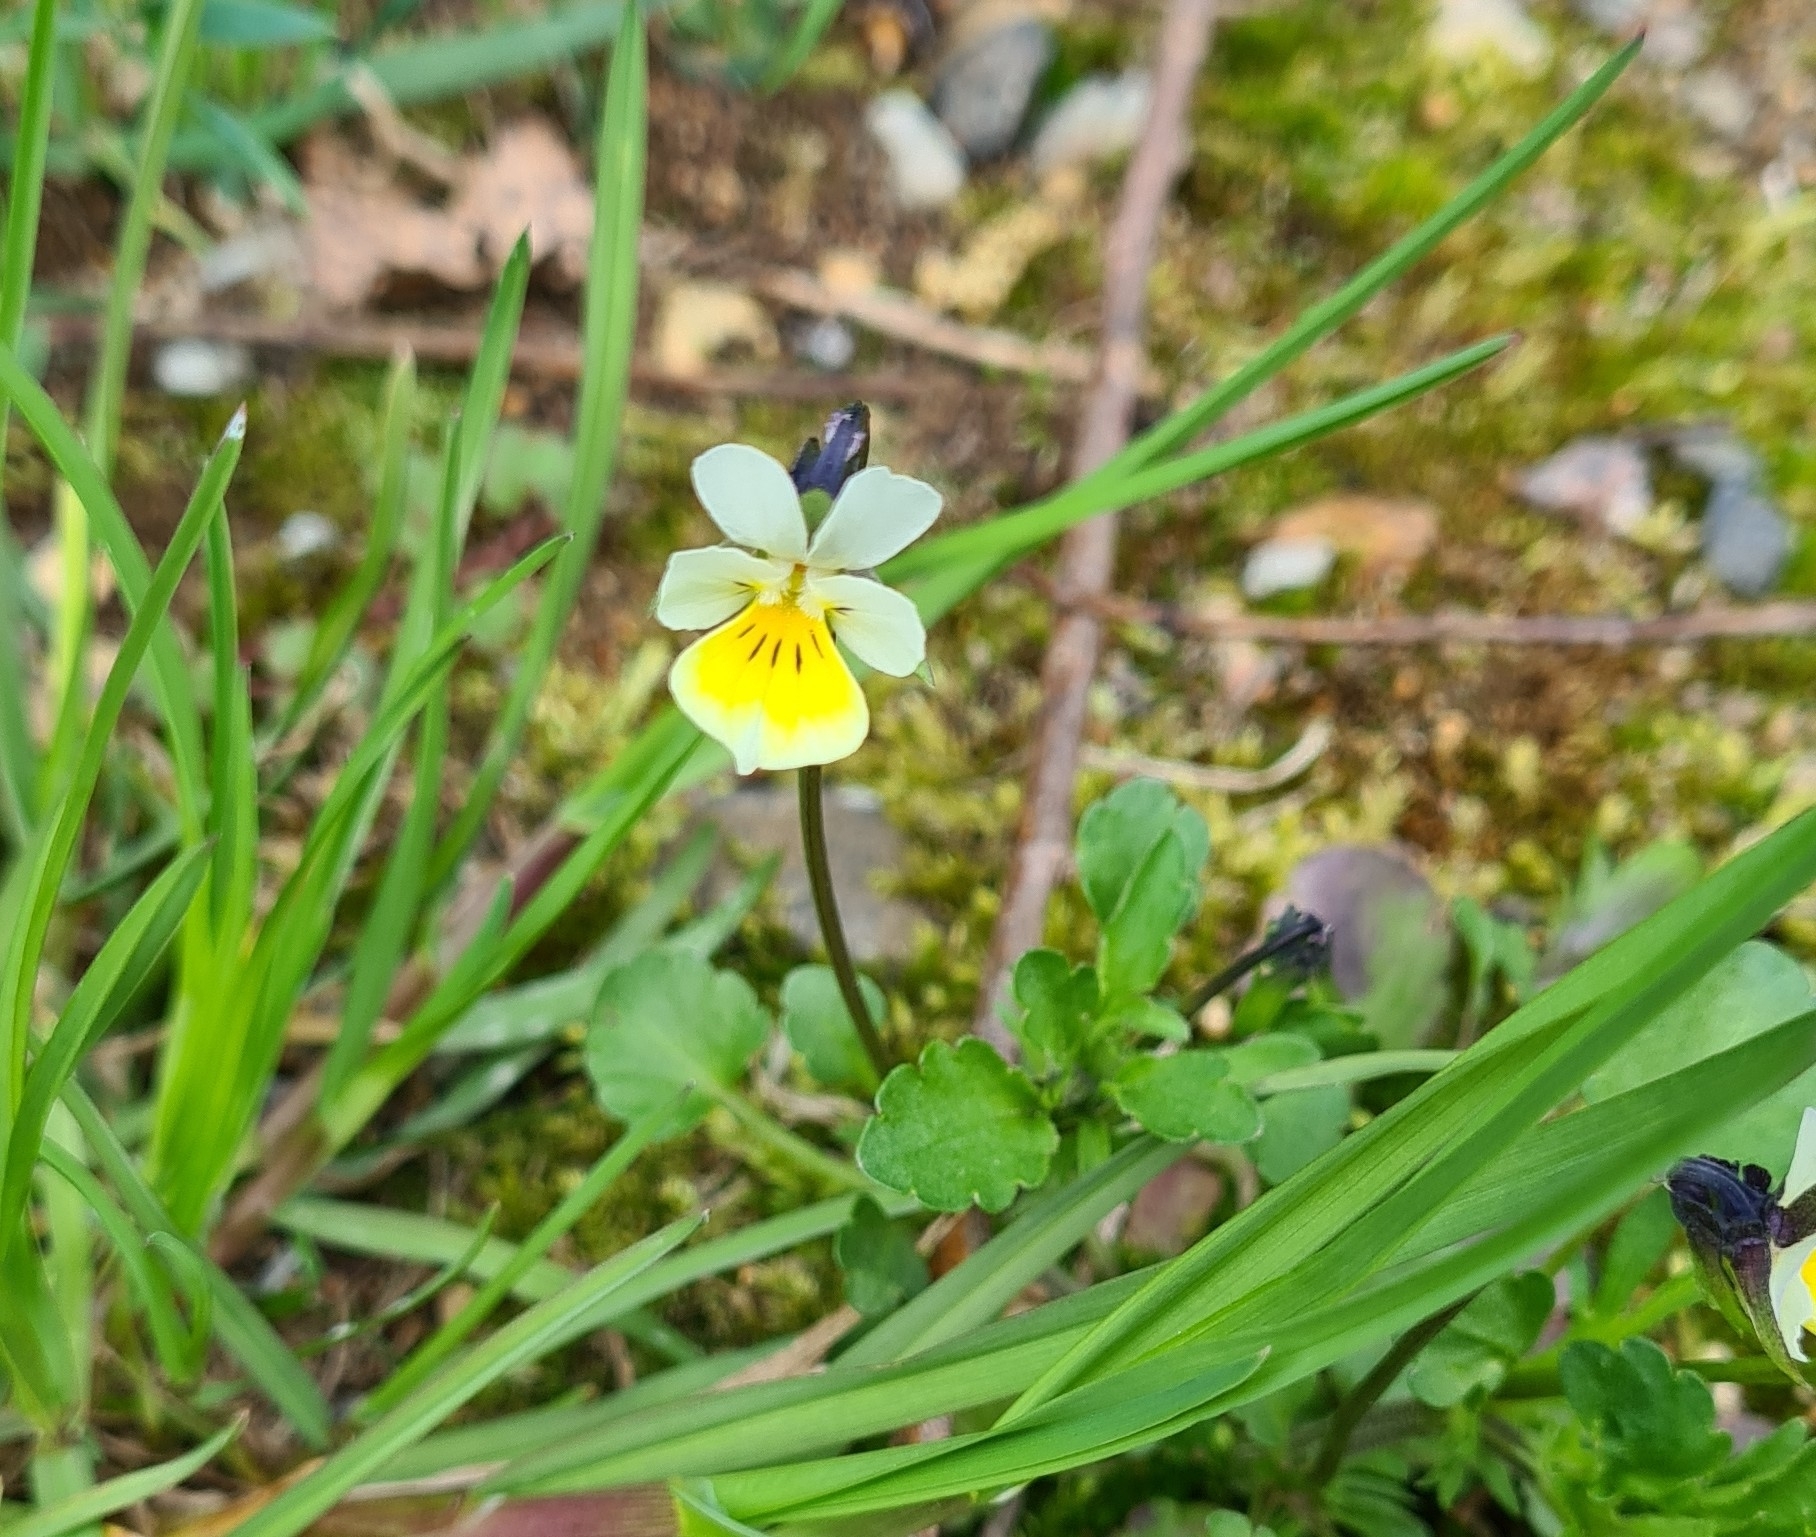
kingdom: Plantae
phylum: Tracheophyta
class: Magnoliopsida
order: Malpighiales
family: Violaceae
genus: Viola
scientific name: Viola arvensis
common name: Field pansy
